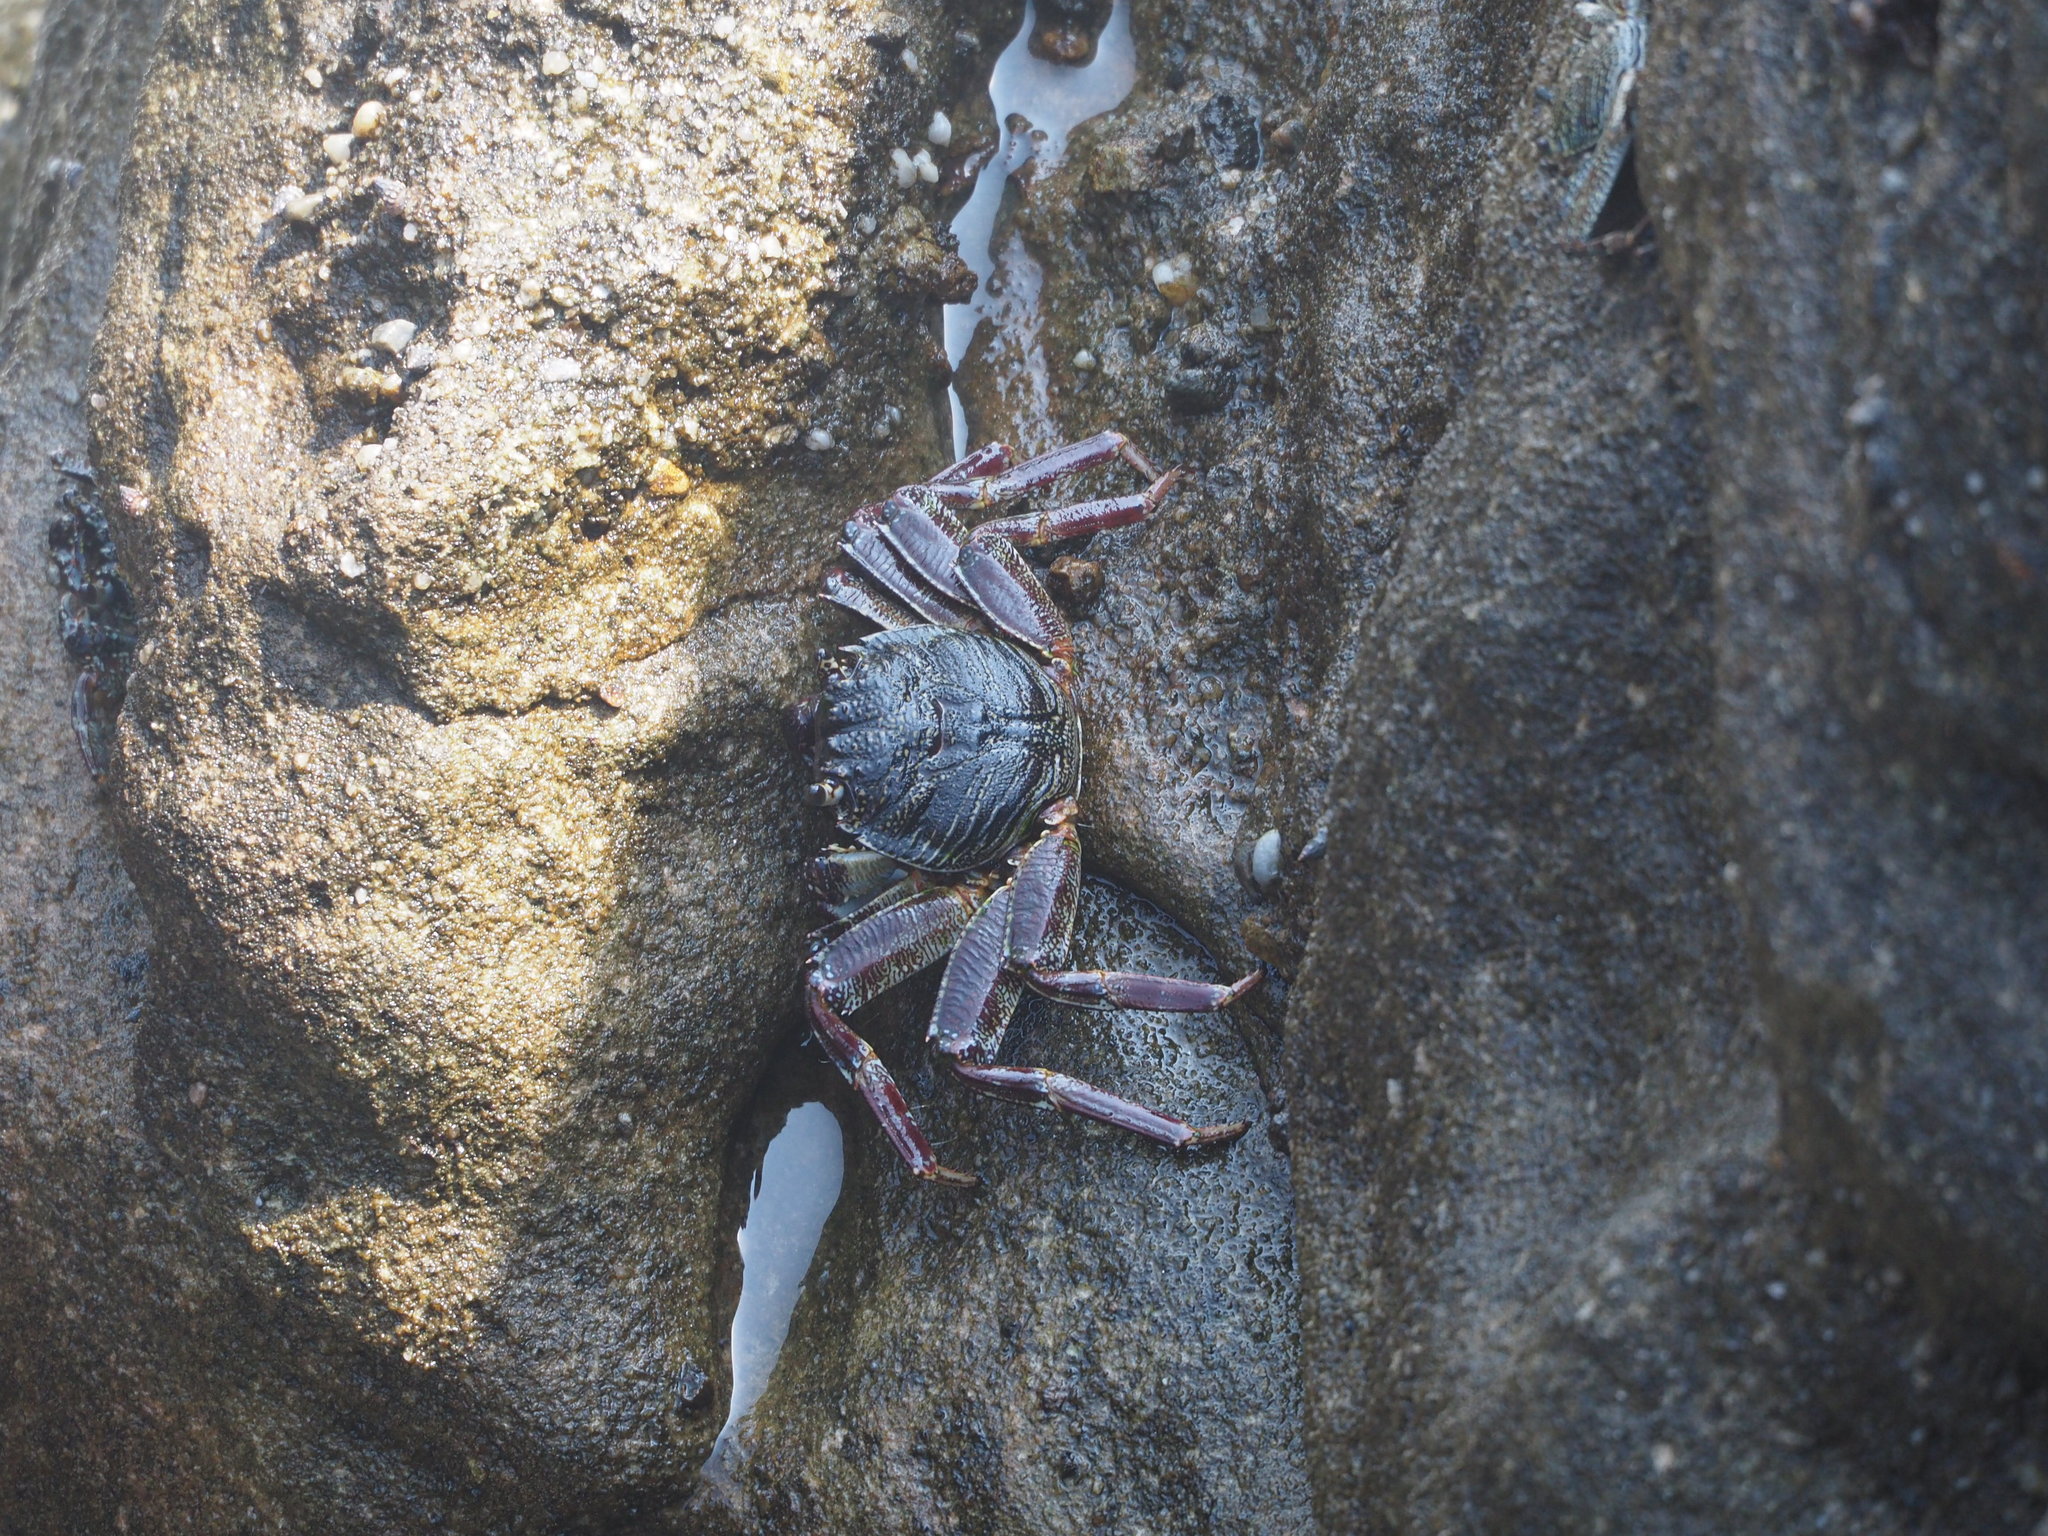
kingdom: Animalia
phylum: Arthropoda
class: Malacostraca
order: Decapoda
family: Grapsidae
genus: Grapsus
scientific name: Grapsus tenuicrustatus
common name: Natal lightfoot crab
